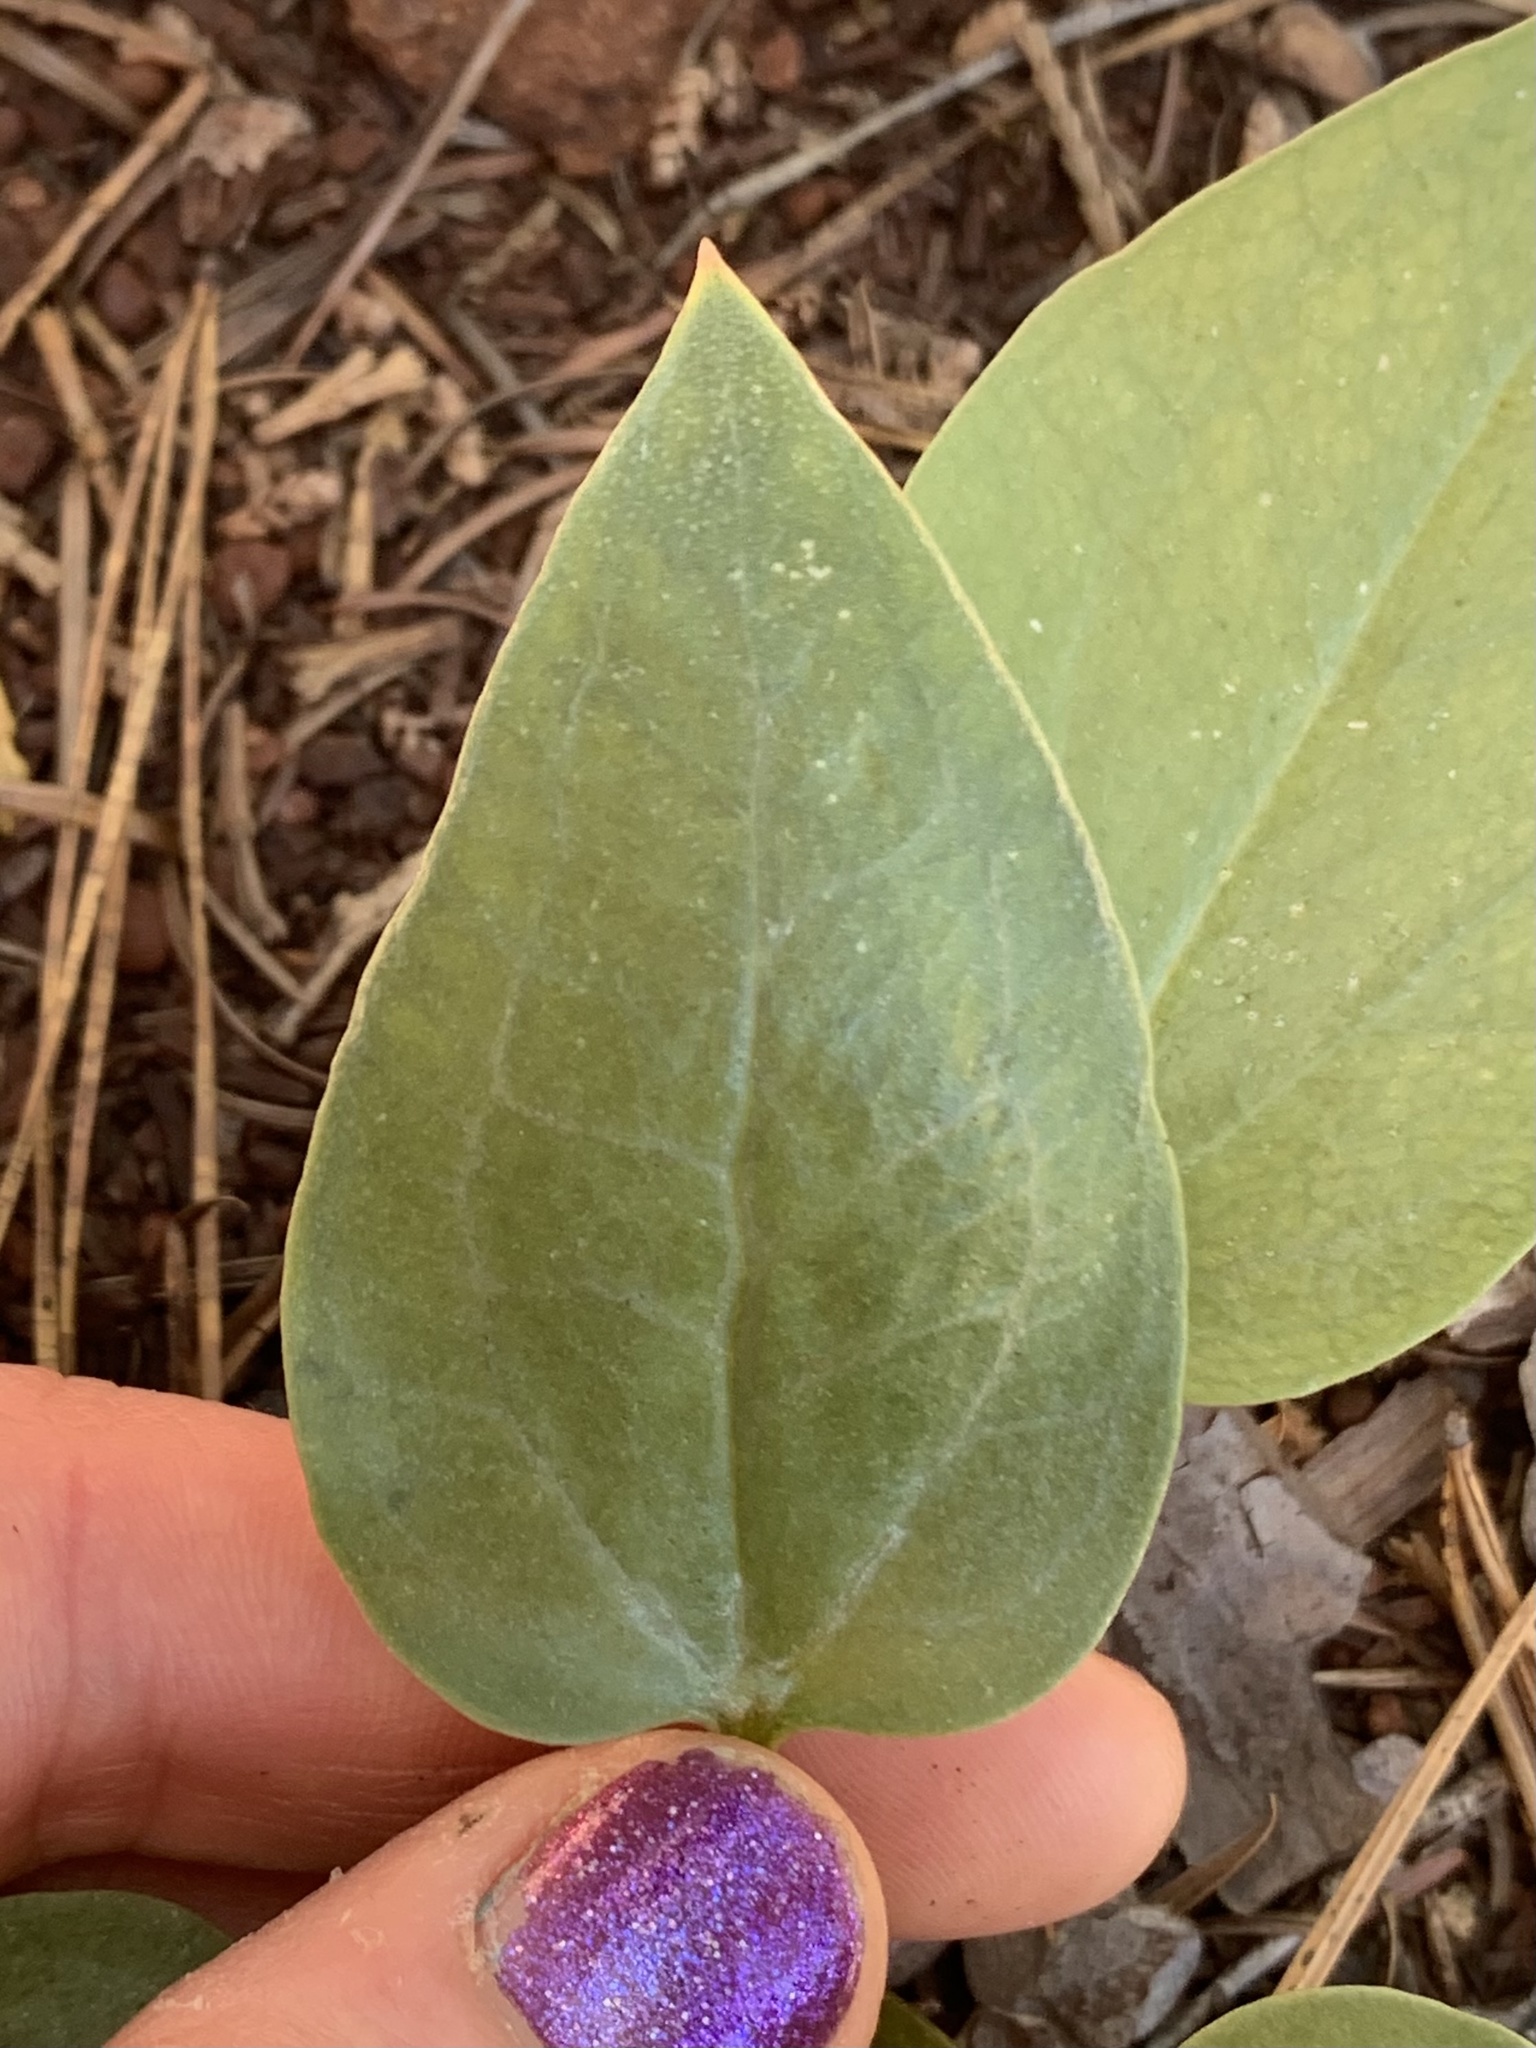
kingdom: Plantae
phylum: Tracheophyta
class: Liliopsida
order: Liliales
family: Melanthiaceae
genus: Pseudotrillium
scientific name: Pseudotrillium rivale
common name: Brook wakerobin
